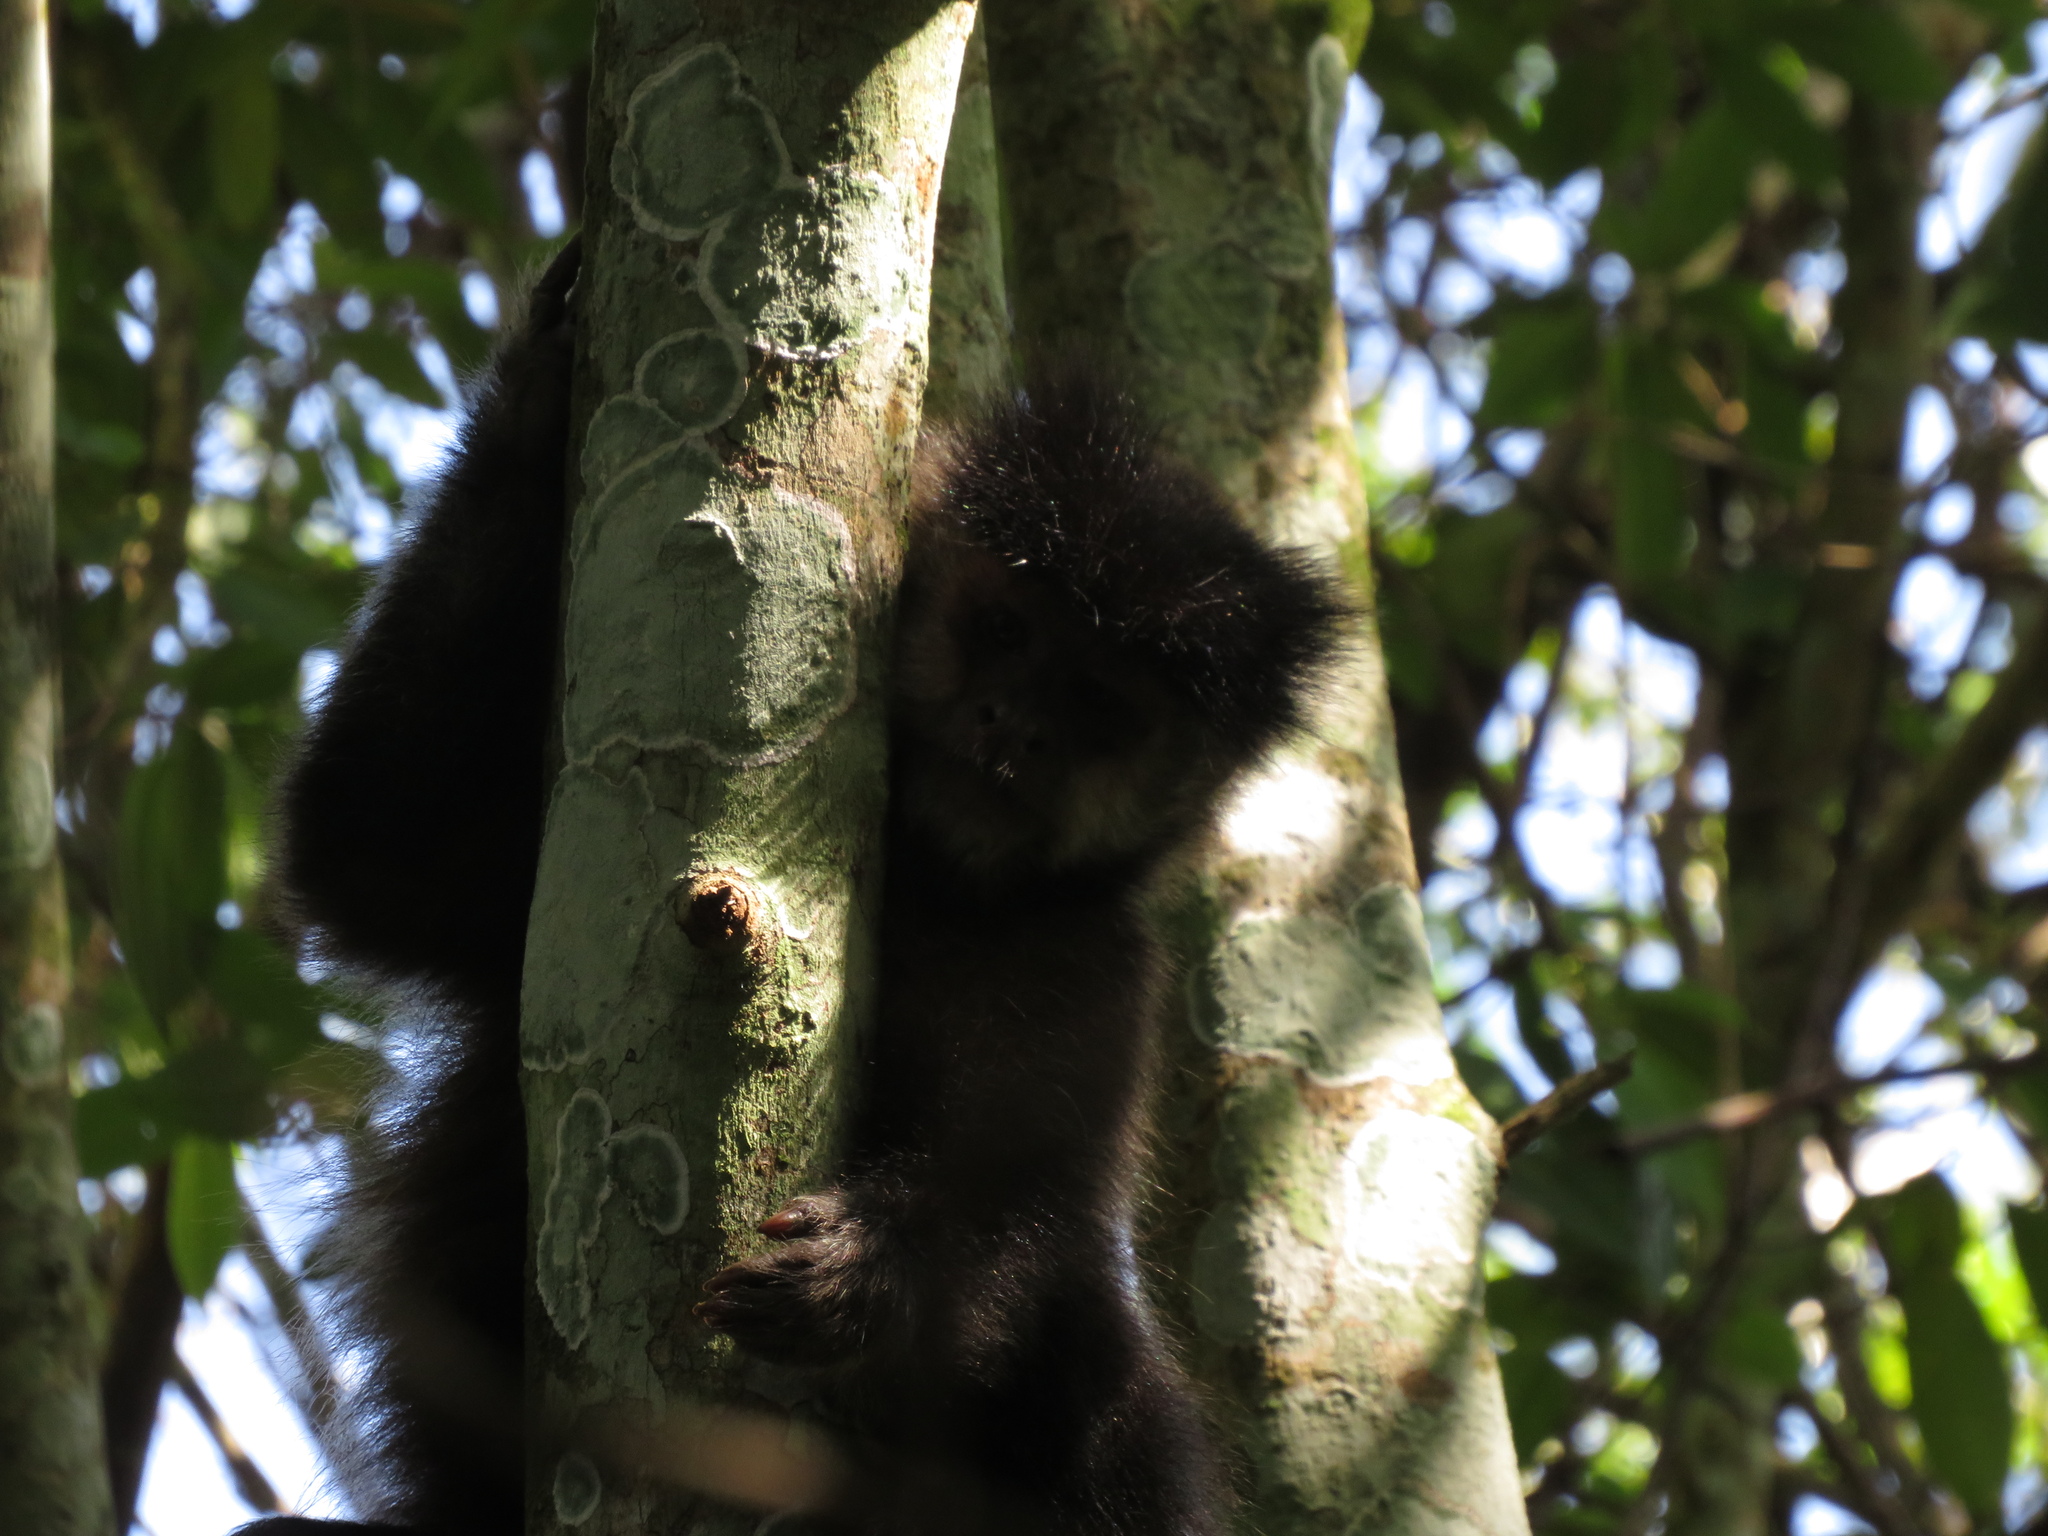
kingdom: Animalia
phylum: Chordata
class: Mammalia
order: Primates
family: Cebidae
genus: Sapajus
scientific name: Sapajus nigritus
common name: Black capuchin
